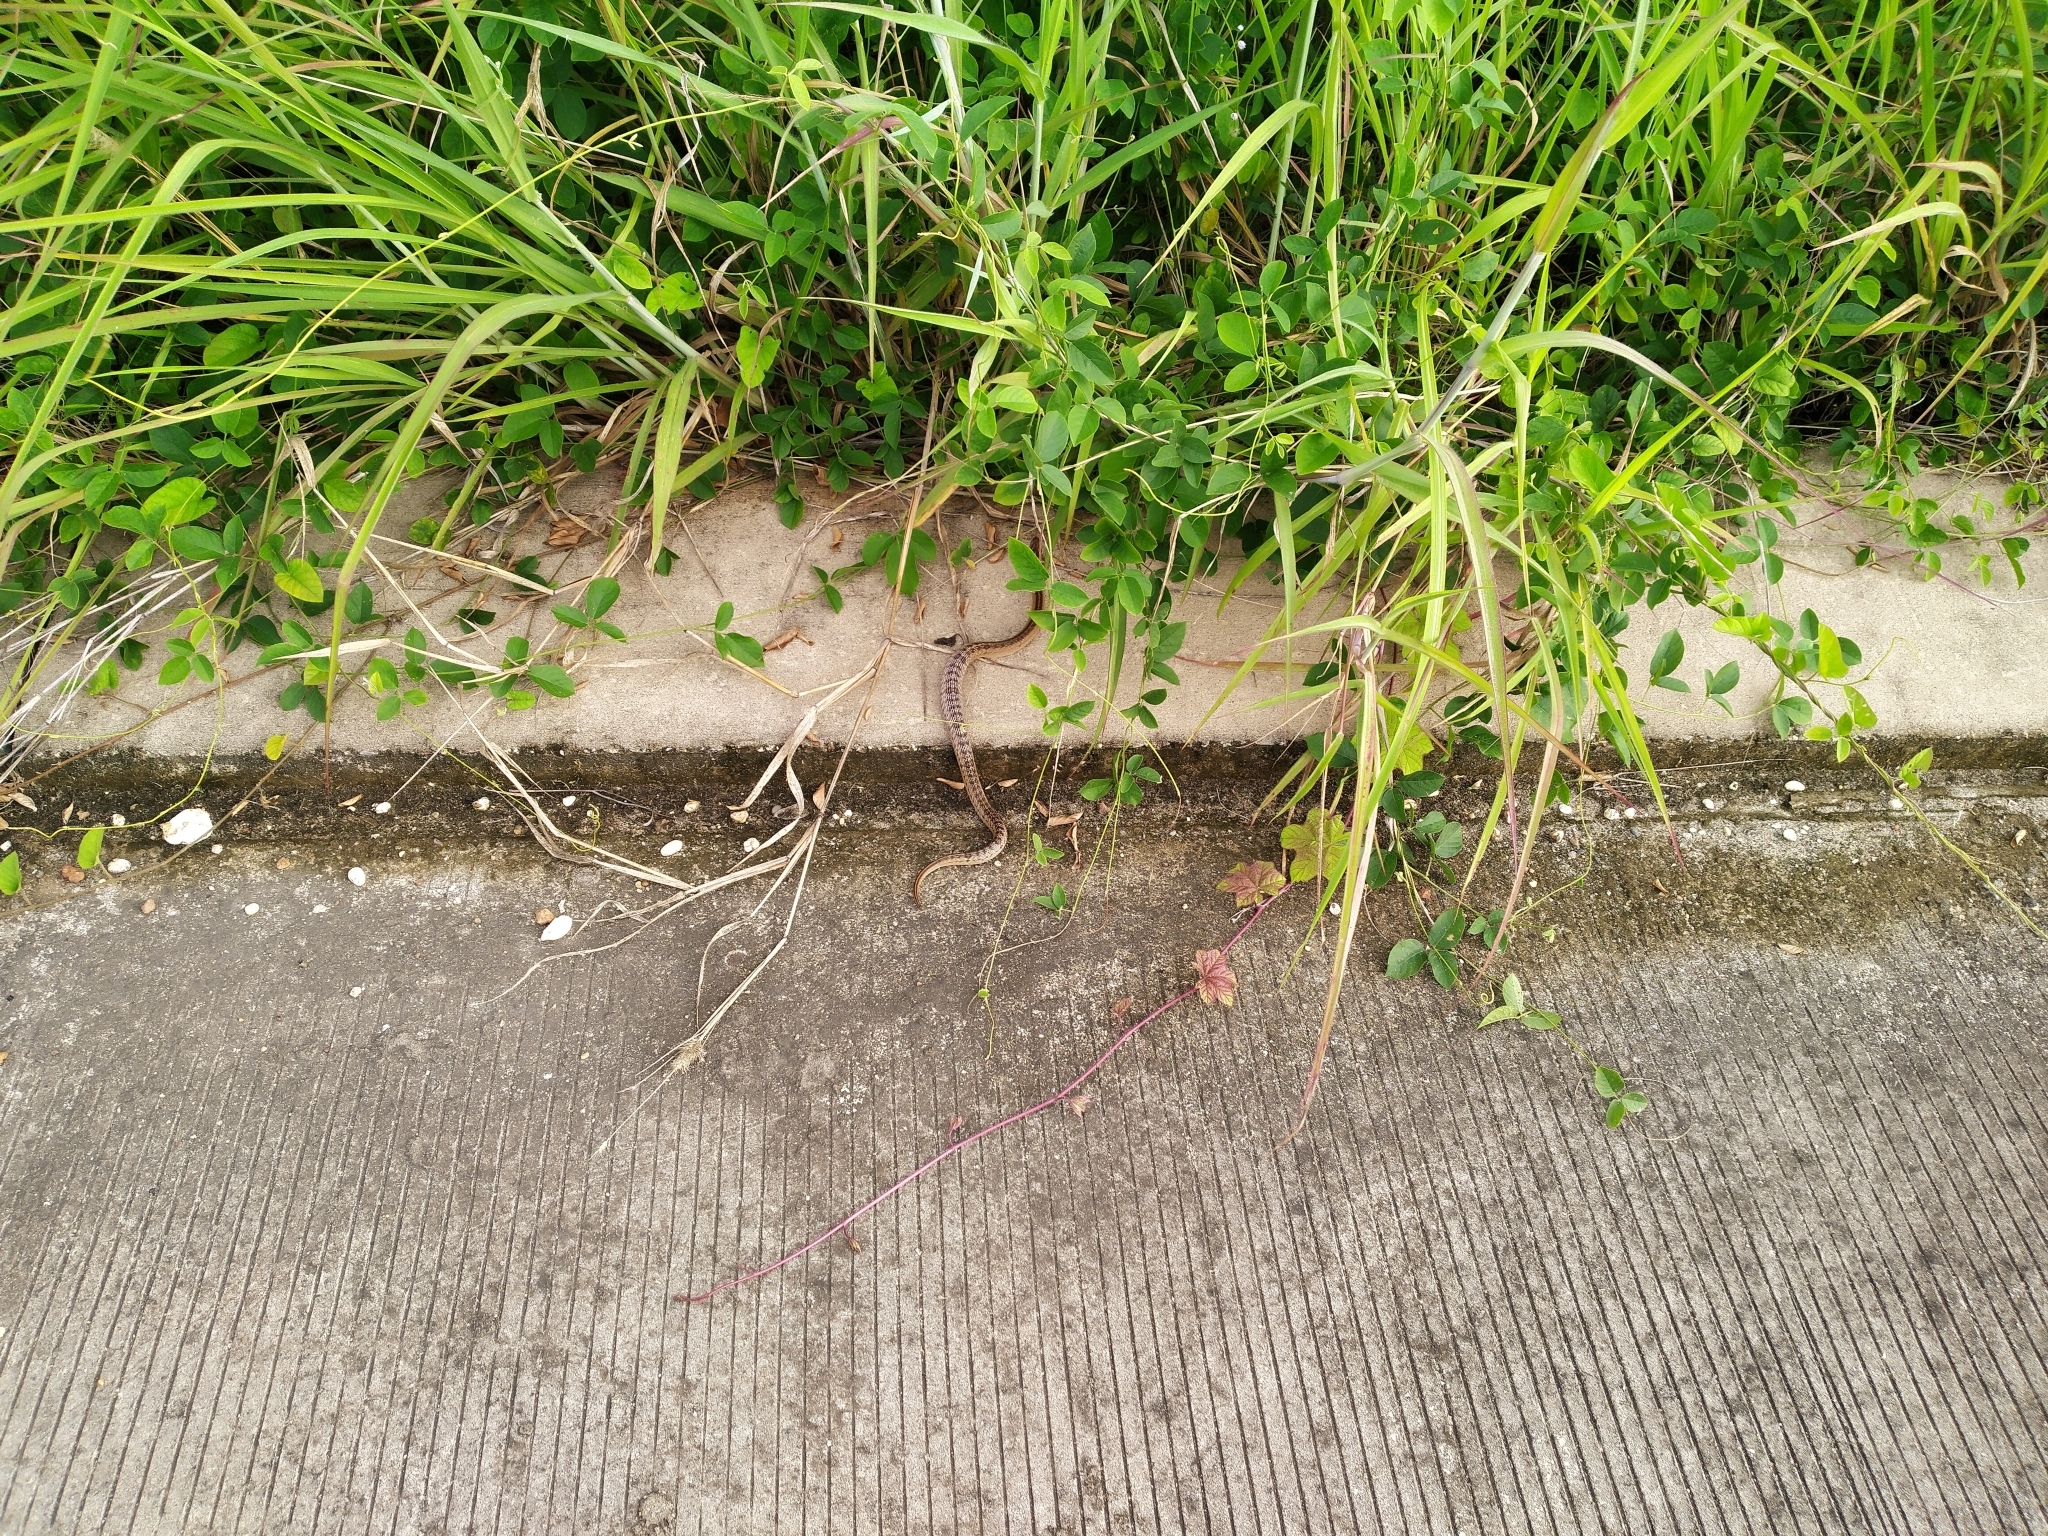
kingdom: Animalia
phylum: Chordata
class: Squamata
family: Colubridae
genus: Oligodon
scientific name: Oligodon fasciolatus
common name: Fasciolated kukri snake
